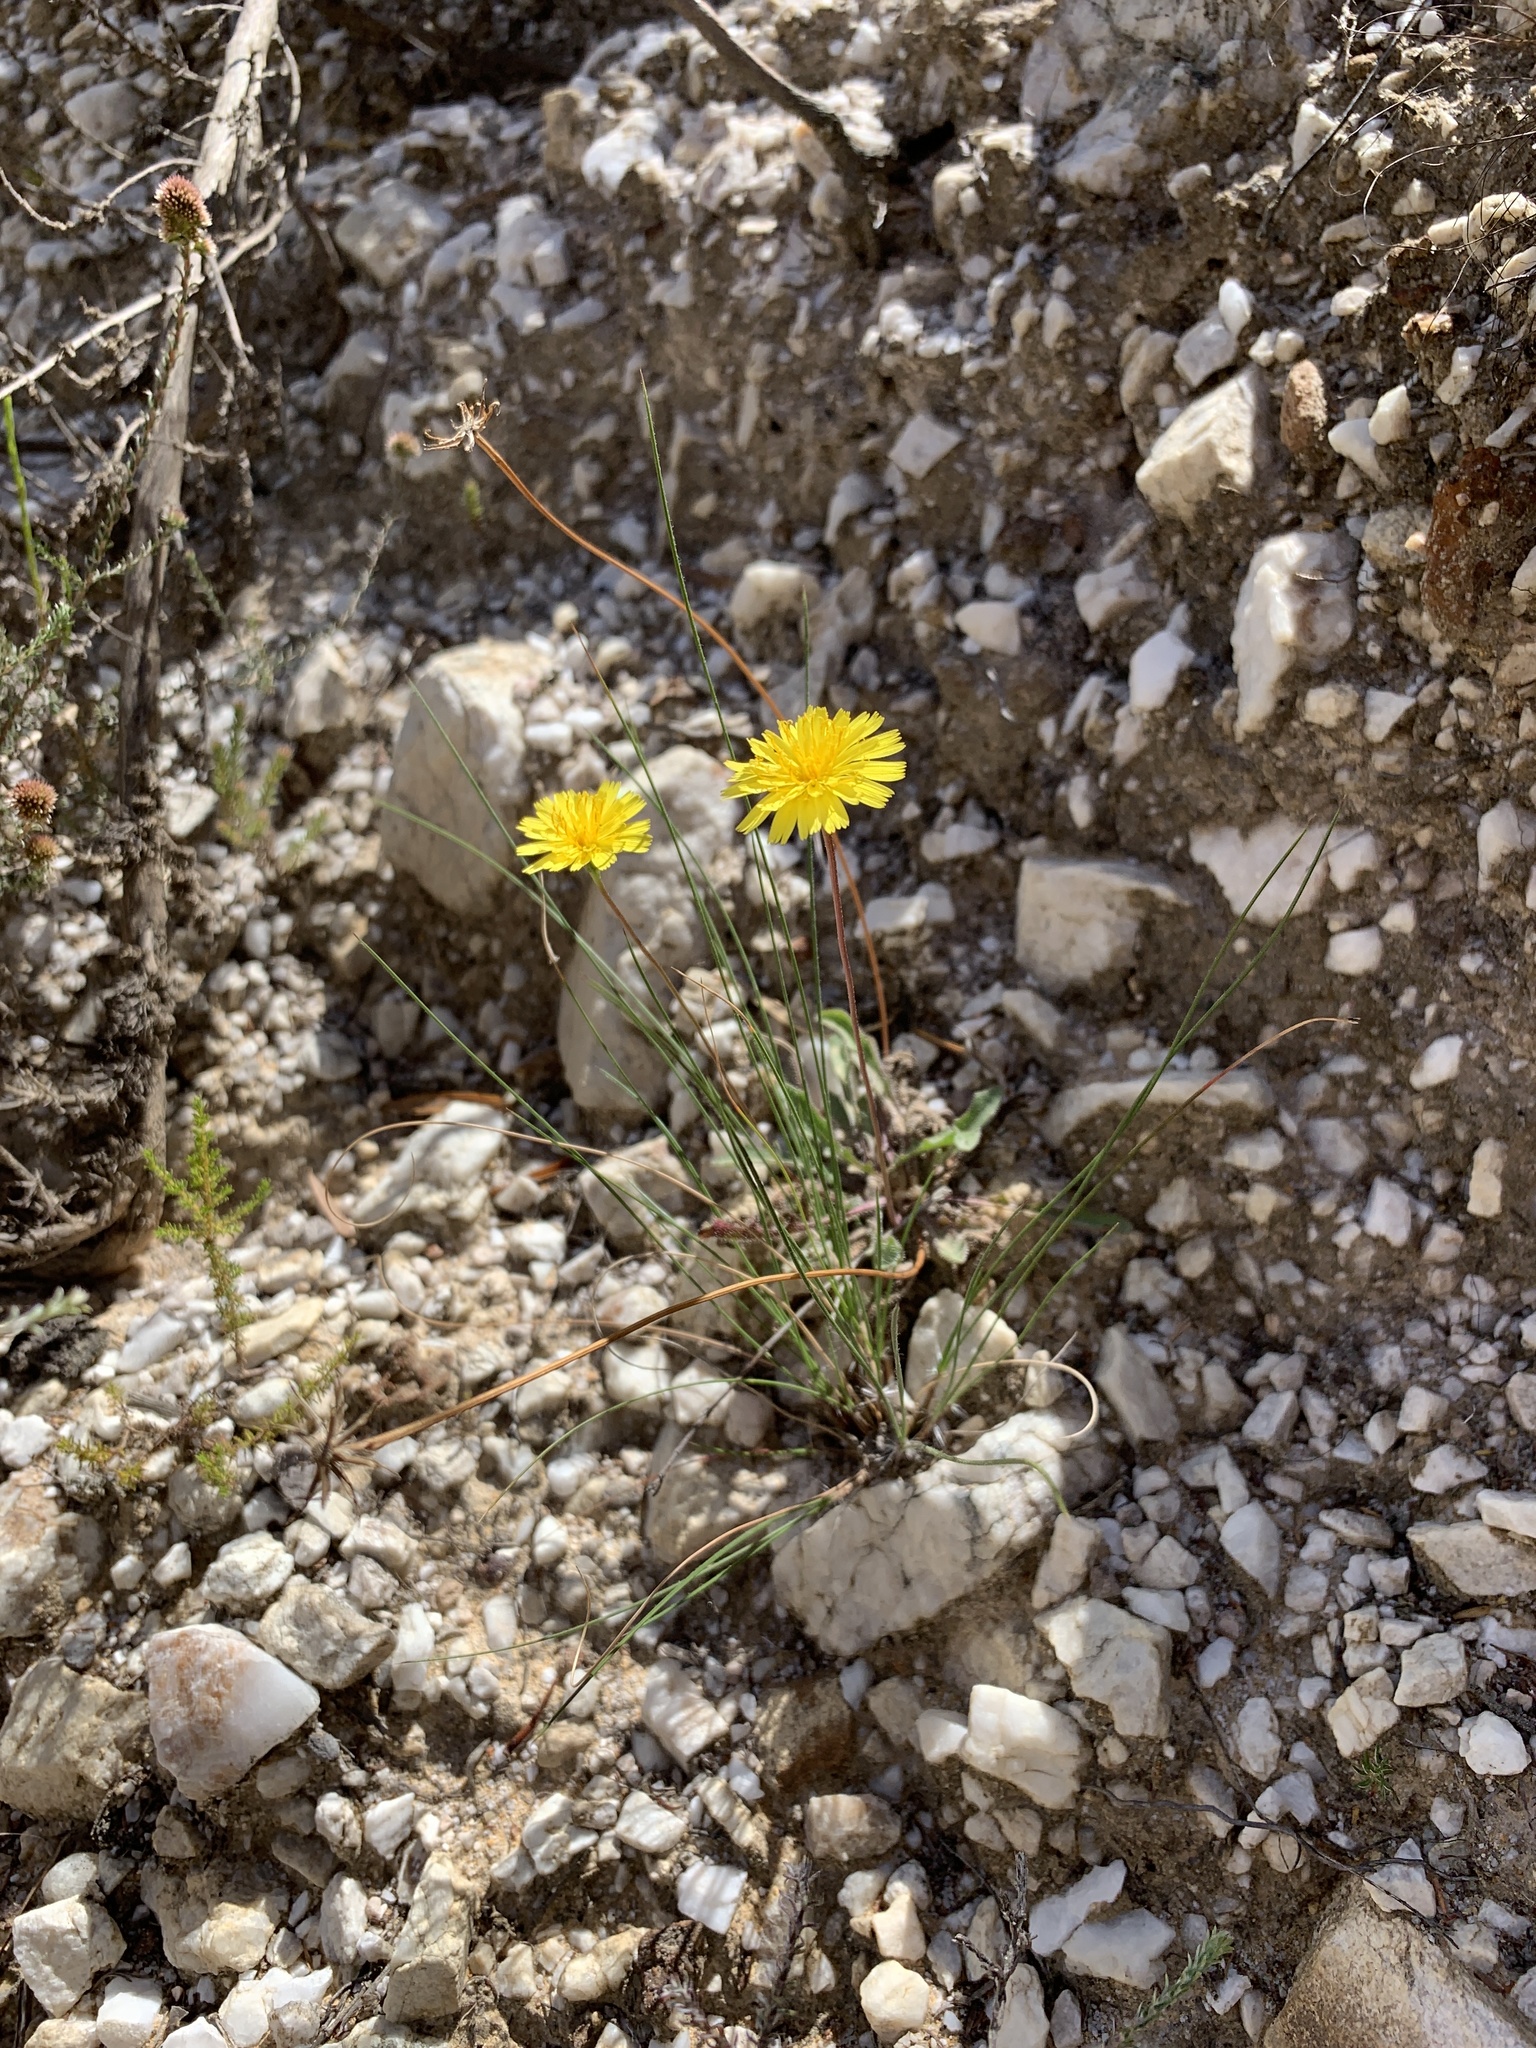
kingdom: Plantae
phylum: Tracheophyta
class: Magnoliopsida
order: Asterales
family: Asteraceae
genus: Hypochaeris
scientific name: Hypochaeris radicata
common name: Flatweed
